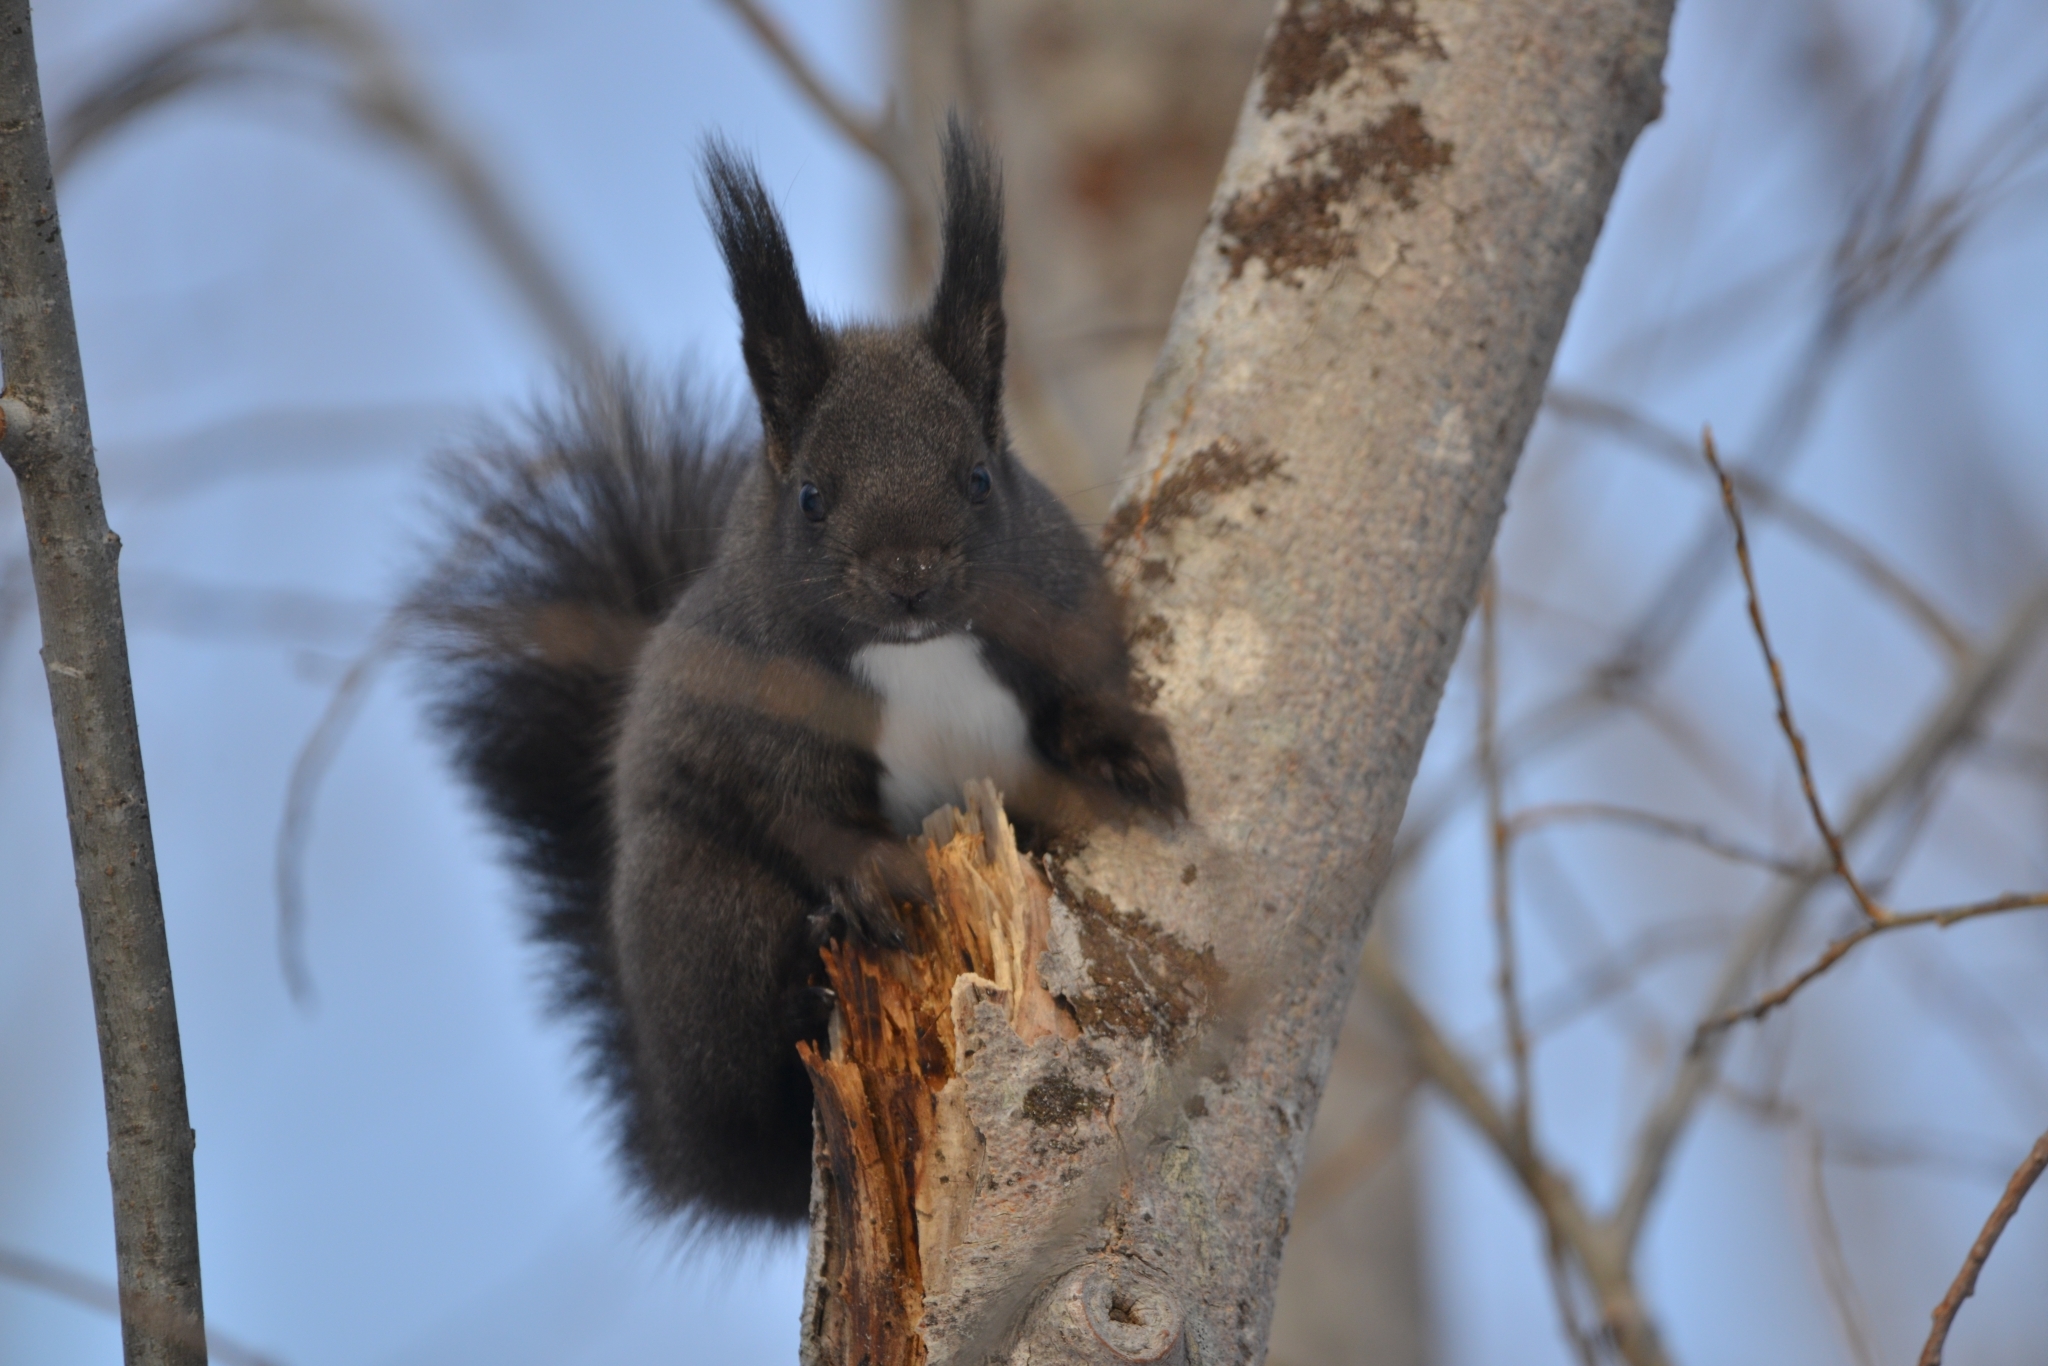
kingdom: Animalia
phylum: Chordata
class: Mammalia
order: Rodentia
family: Sciuridae
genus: Sciurus
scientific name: Sciurus vulgaris
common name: Eurasian red squirrel
